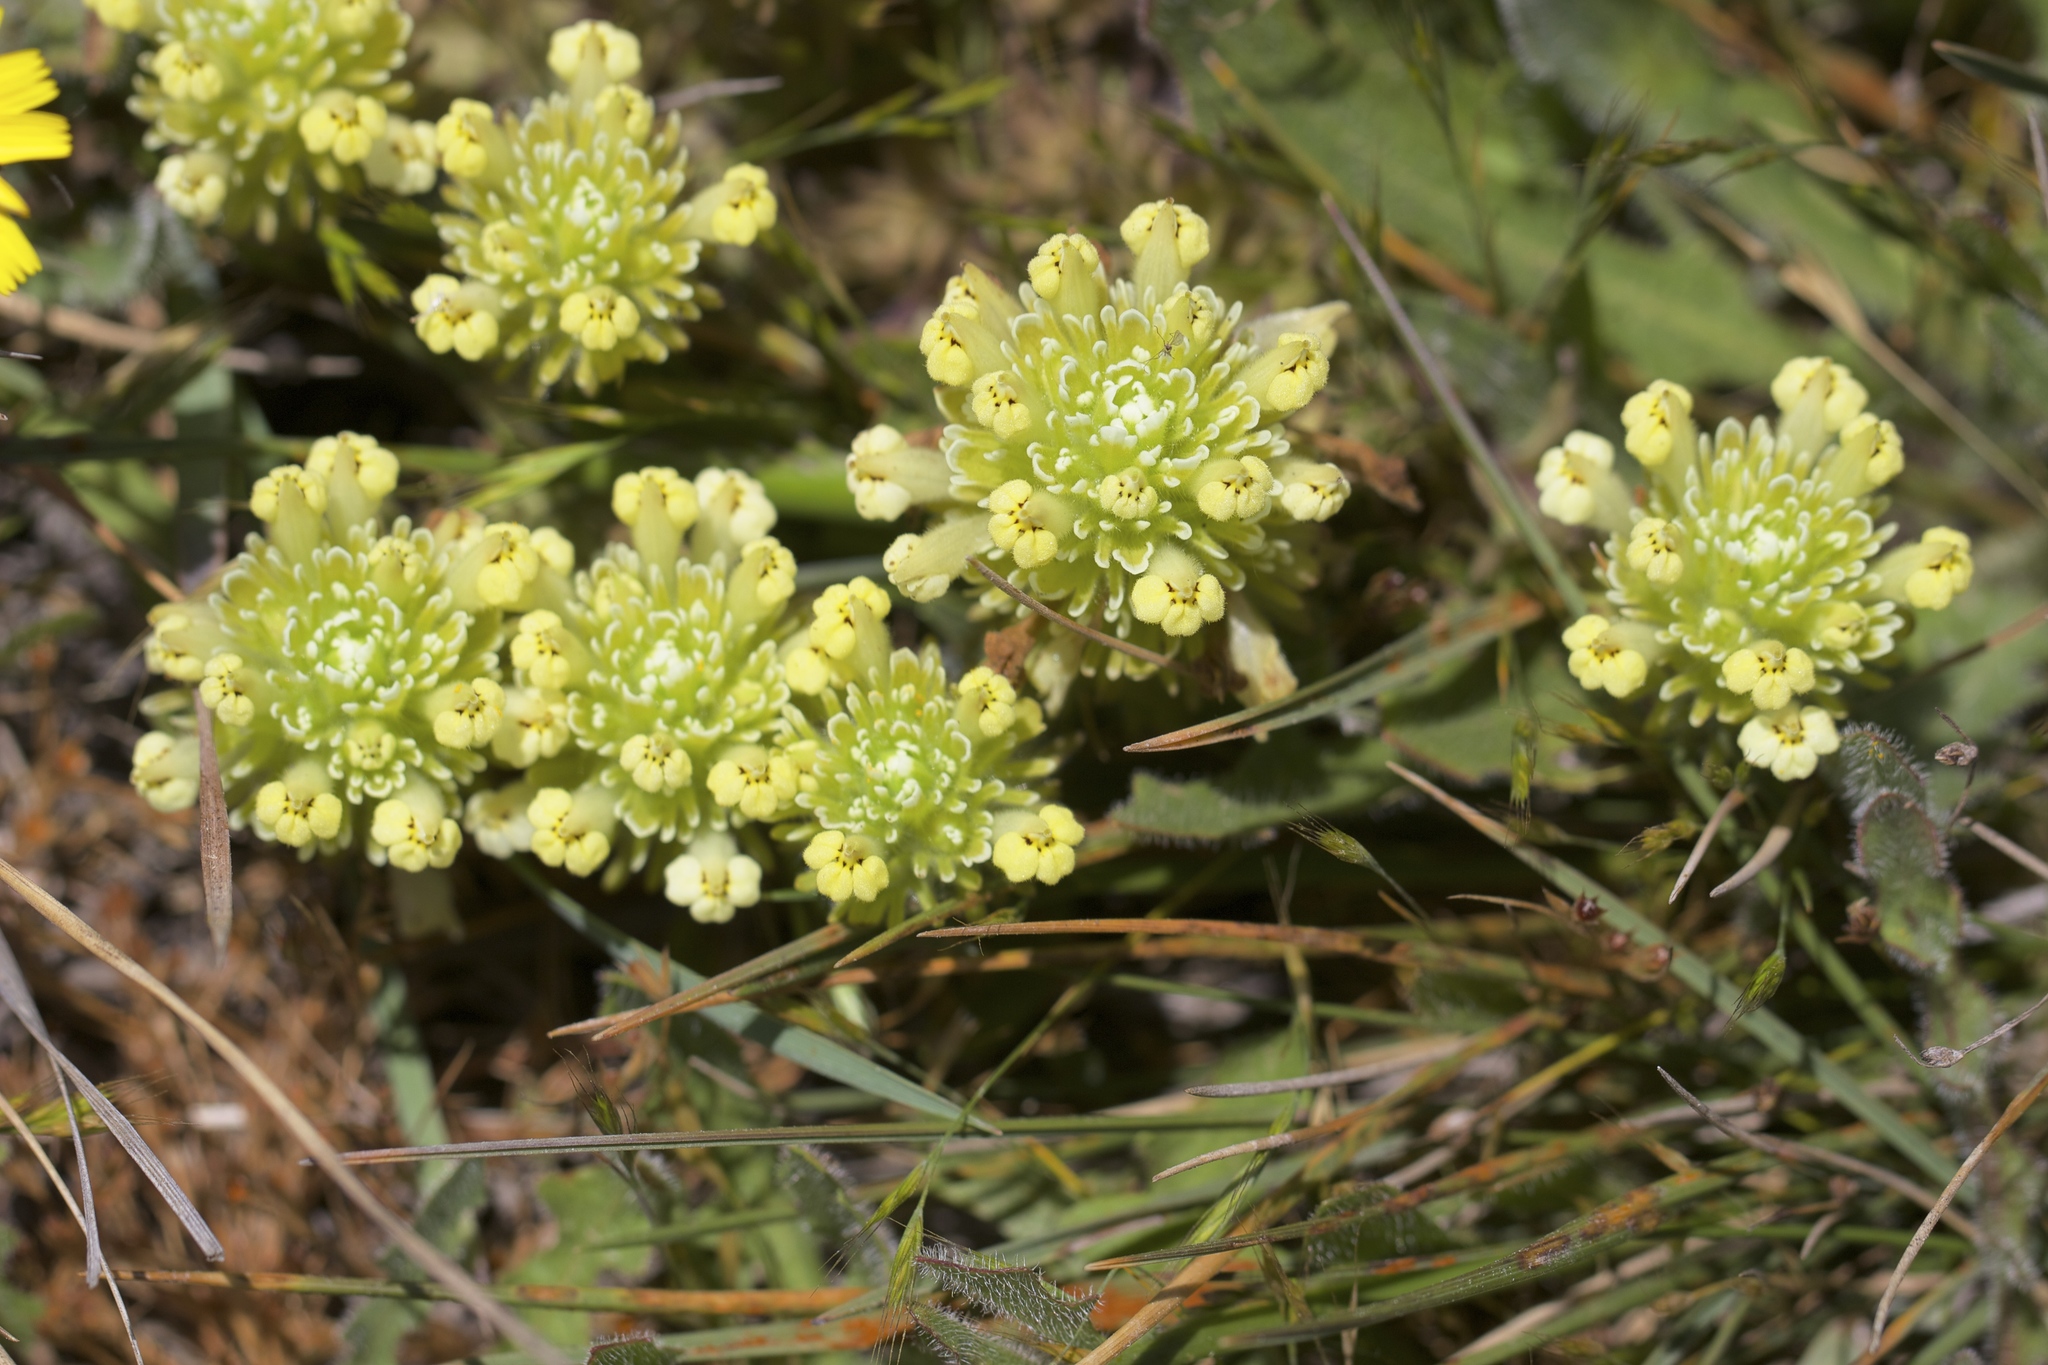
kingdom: Plantae
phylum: Tracheophyta
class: Magnoliopsida
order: Lamiales
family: Orobanchaceae
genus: Castilleja
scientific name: Castilleja ambigua
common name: Johnny-nip
